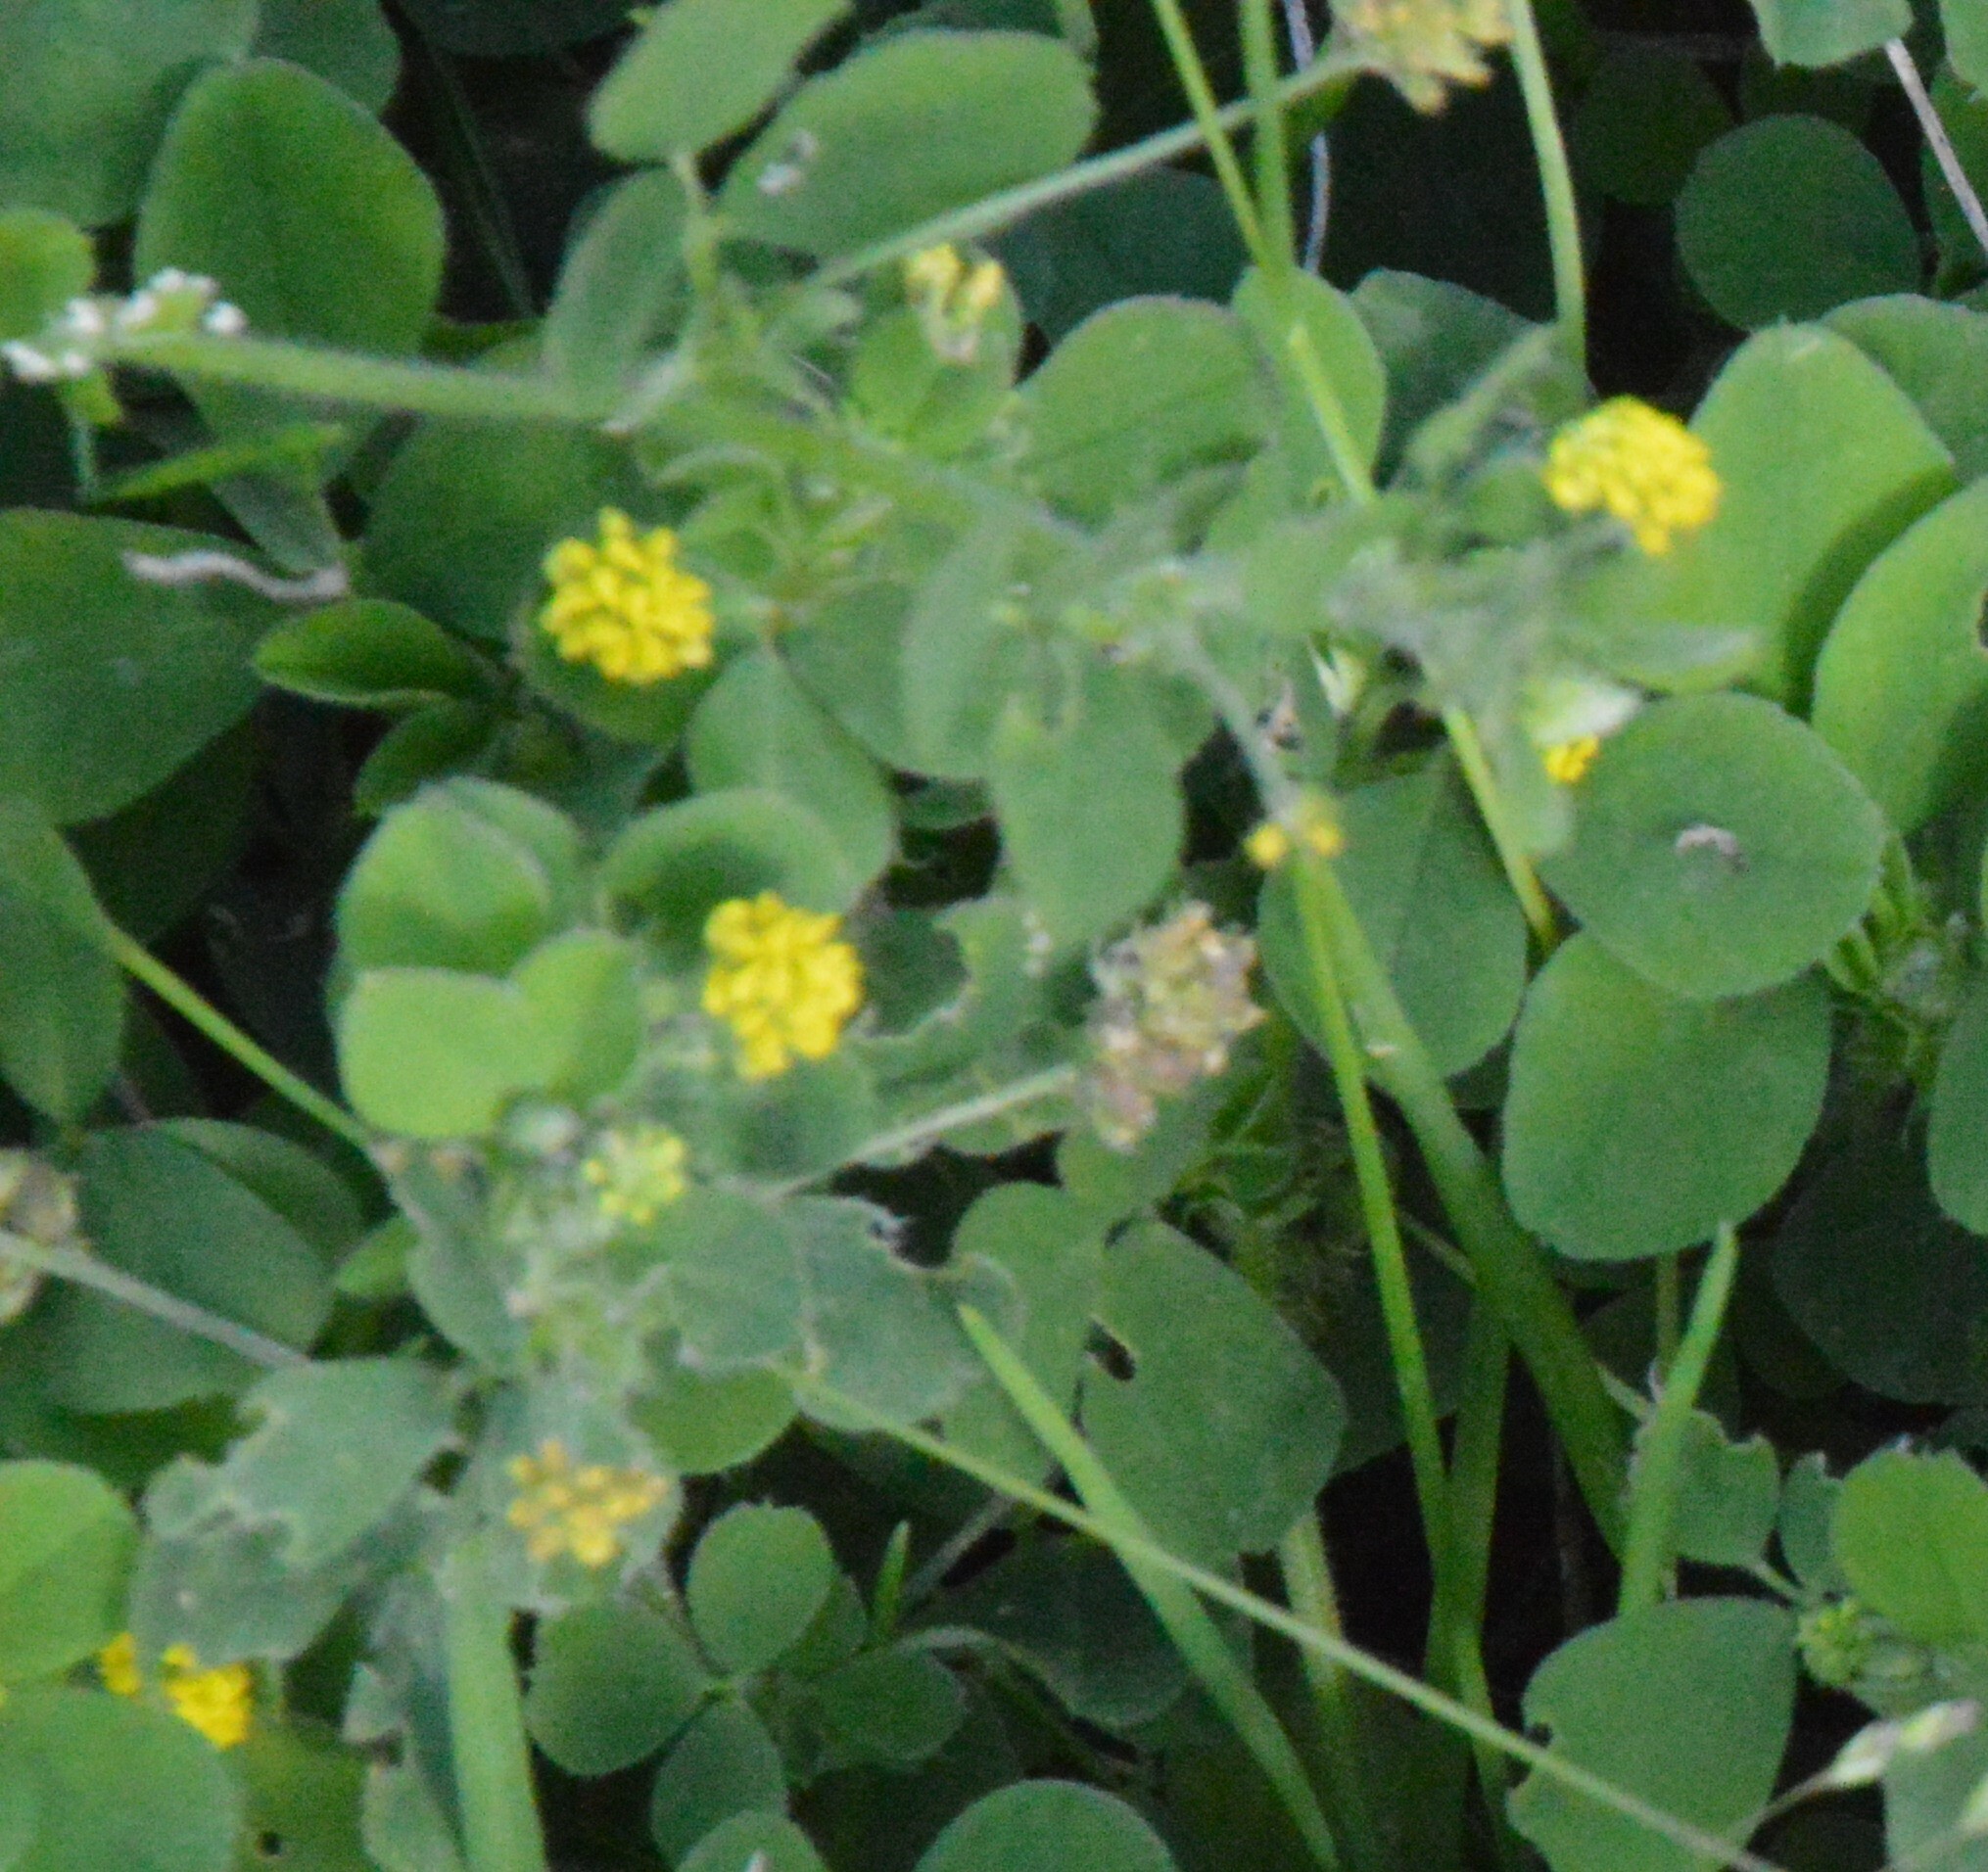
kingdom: Plantae
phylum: Tracheophyta
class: Magnoliopsida
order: Fabales
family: Fabaceae
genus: Medicago
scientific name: Medicago lupulina
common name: Black medick
